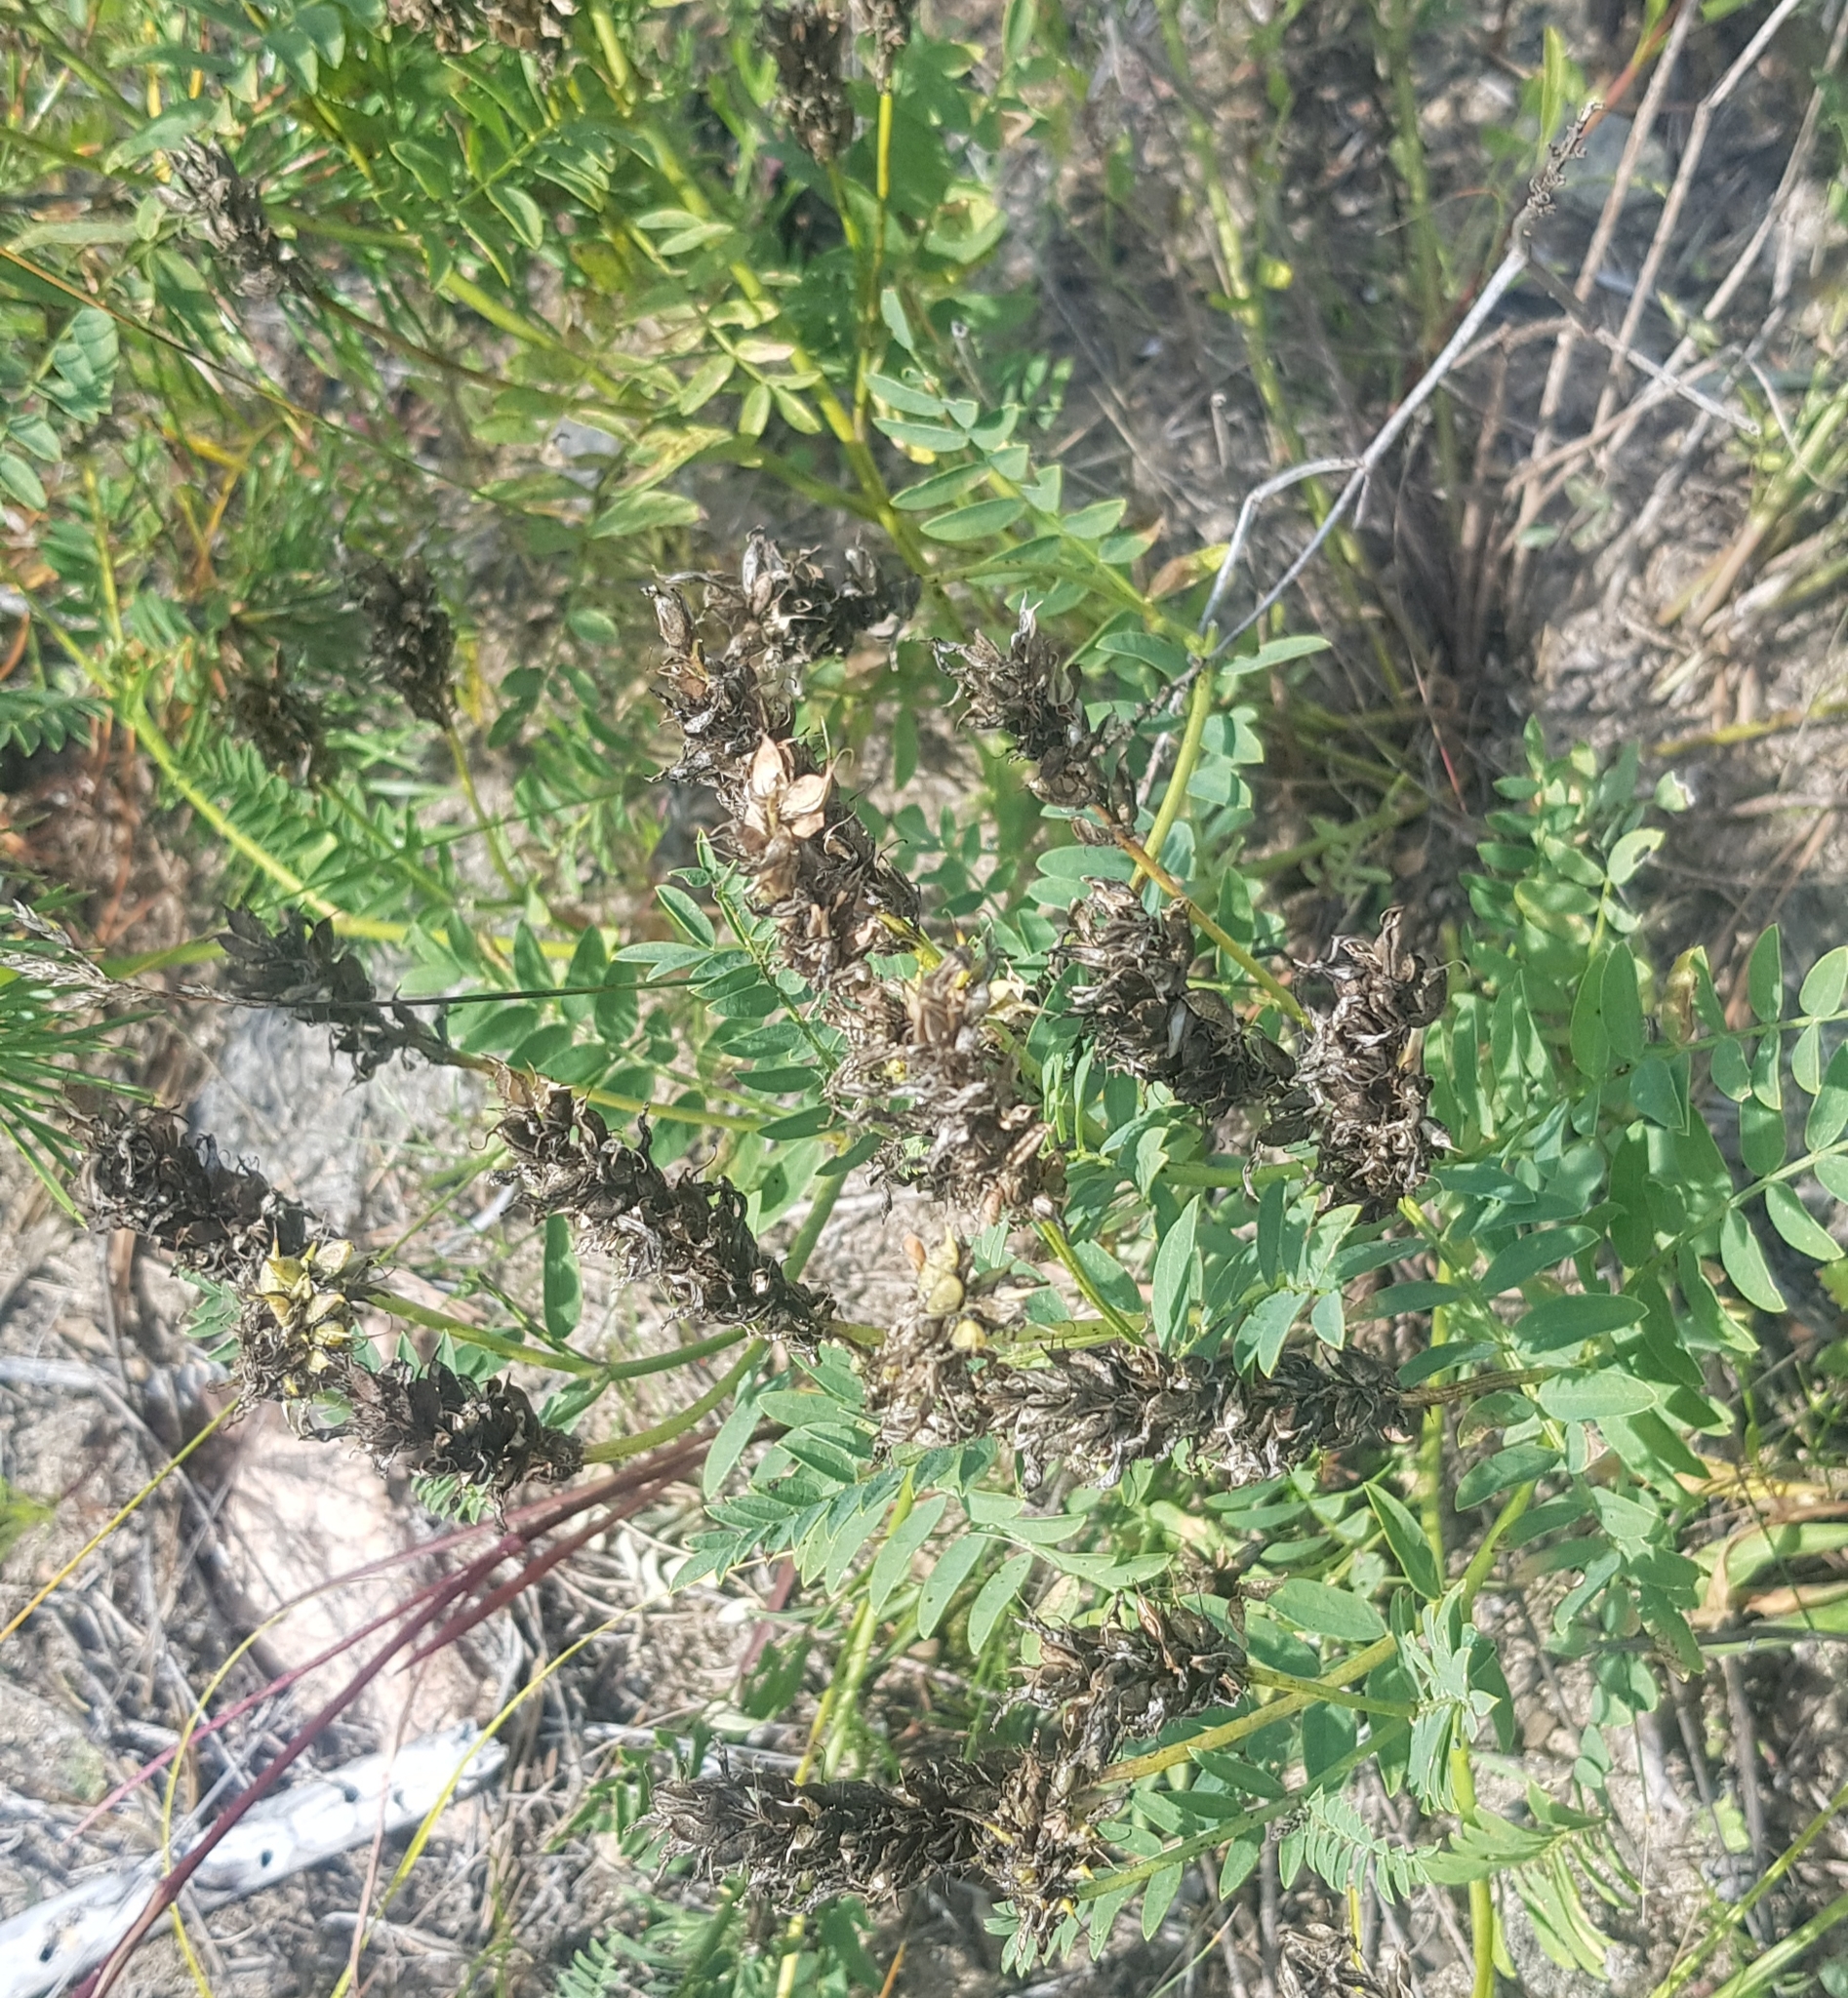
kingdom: Plantae
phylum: Tracheophyta
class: Magnoliopsida
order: Fabales
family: Fabaceae
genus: Astragalus
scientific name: Astragalus laxmannii
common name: Laxmann's milk-vetch
